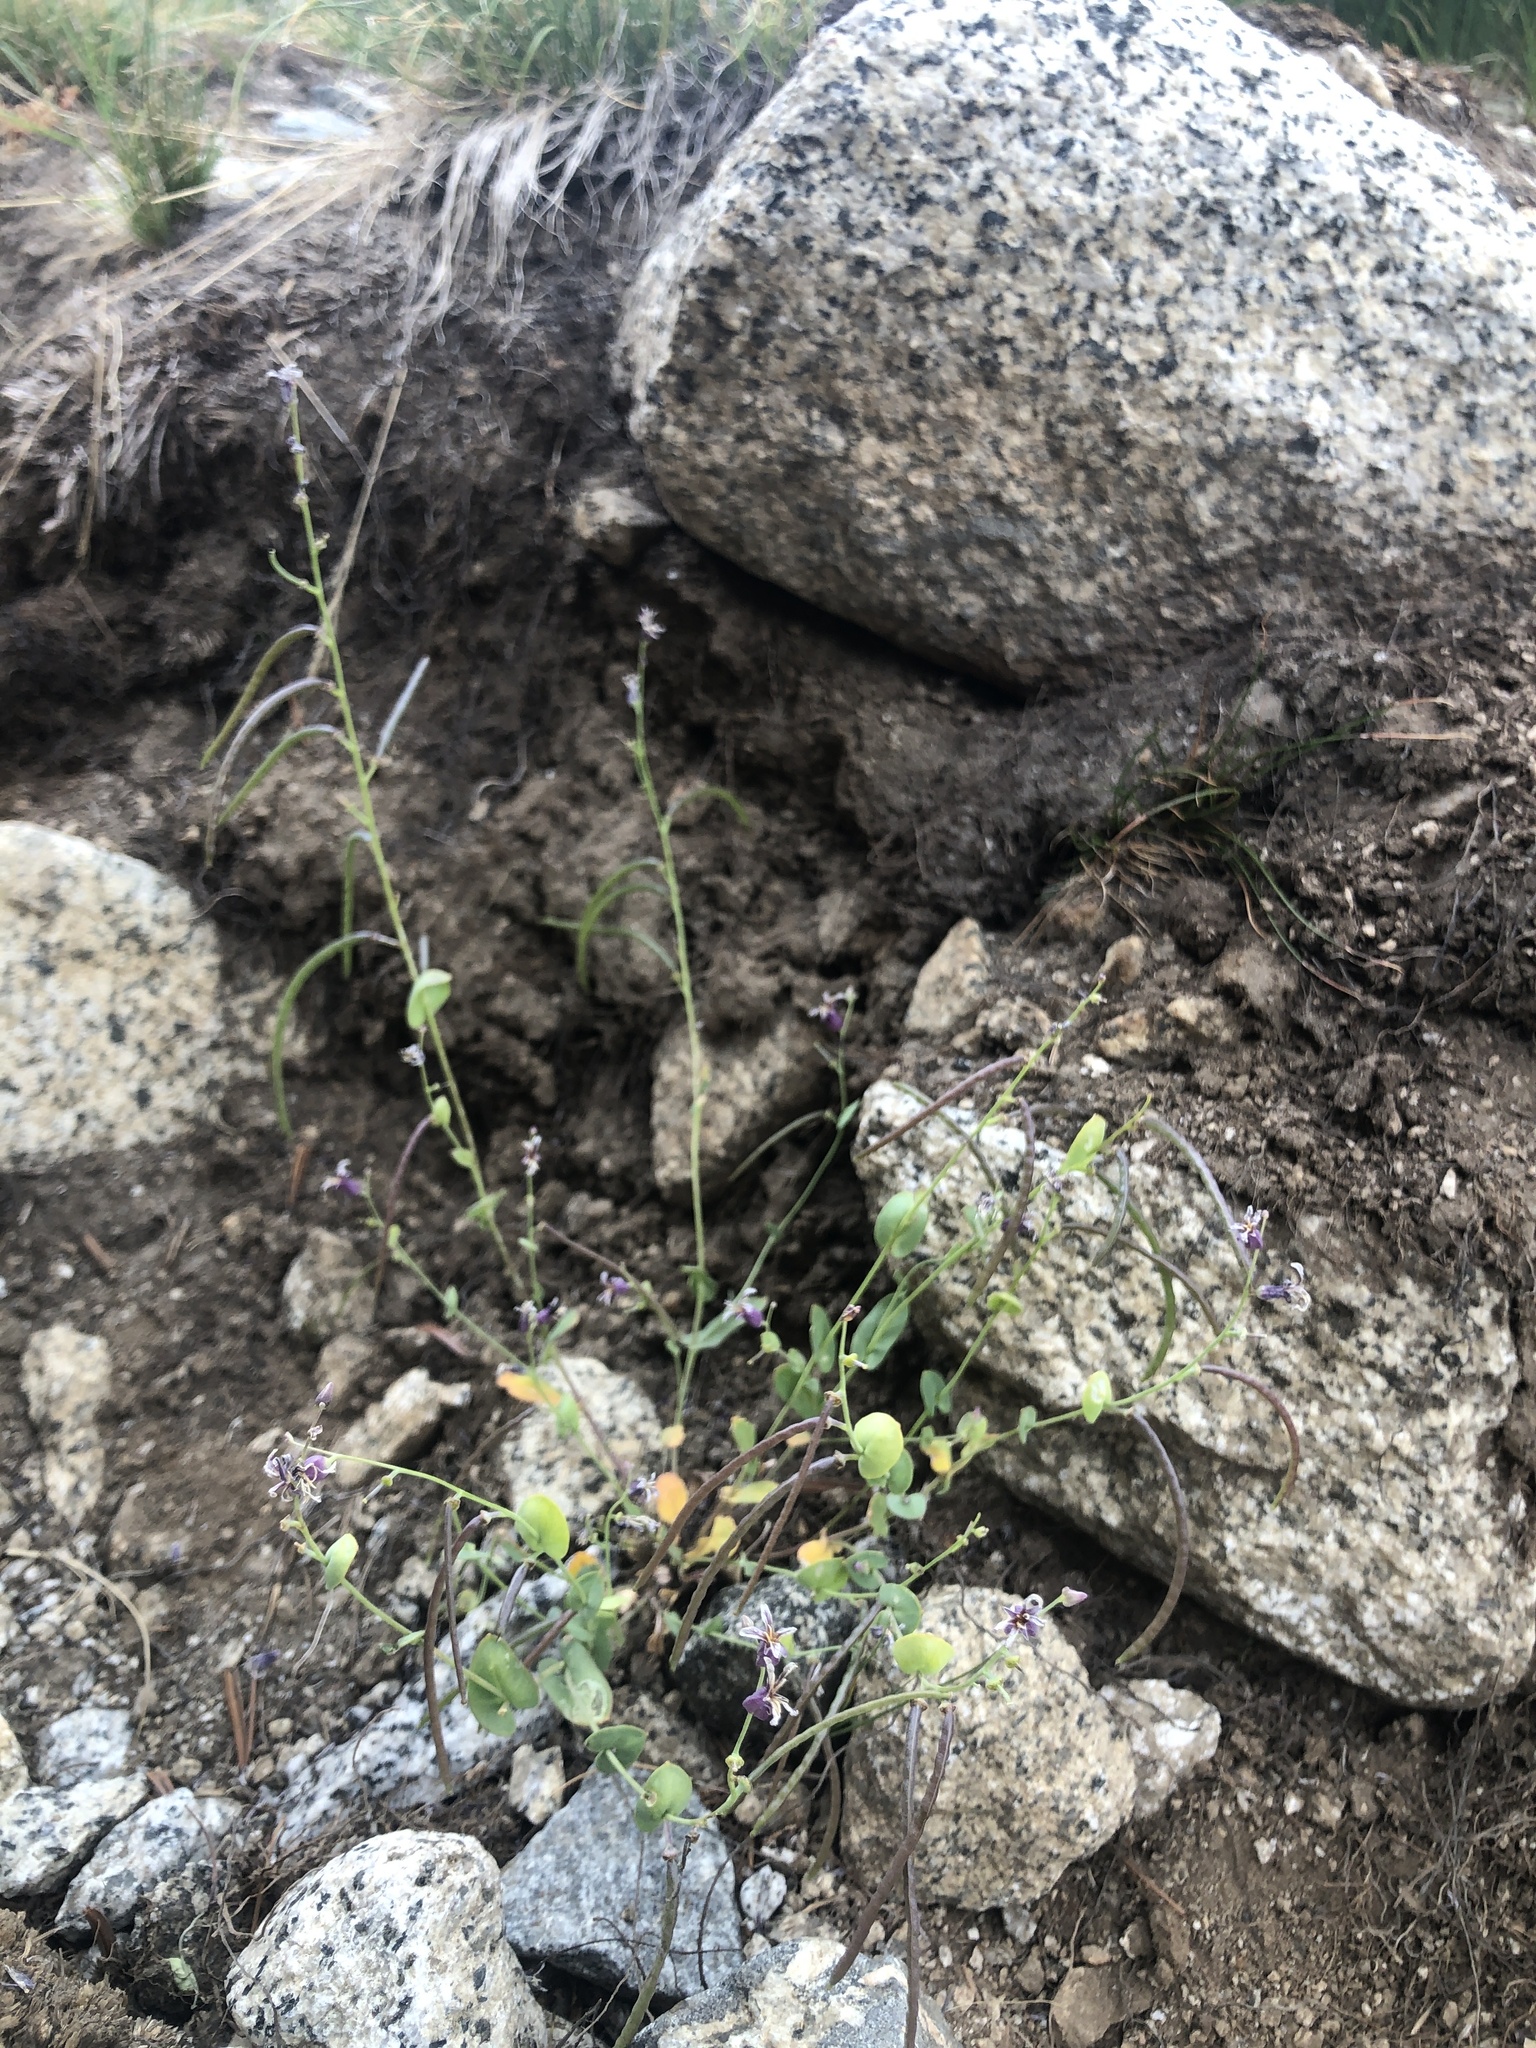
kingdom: Plantae
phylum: Tracheophyta
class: Magnoliopsida
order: Brassicales
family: Brassicaceae
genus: Streptanthus
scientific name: Streptanthus tortuosus
